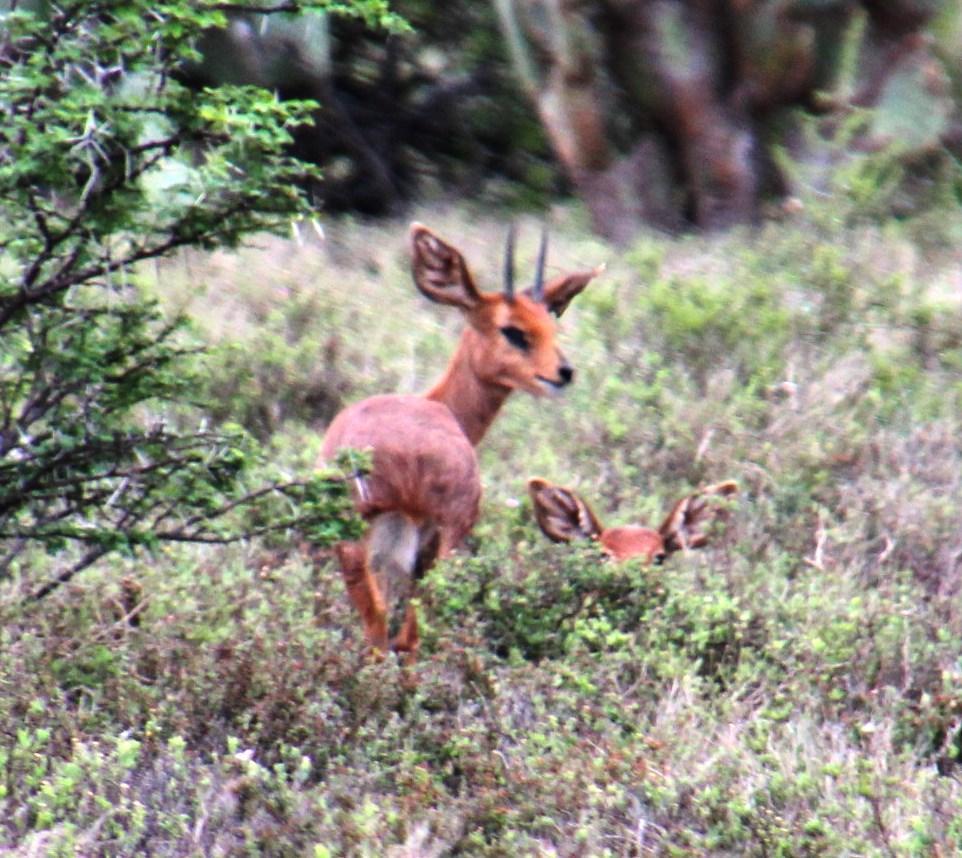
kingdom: Animalia
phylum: Chordata
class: Mammalia
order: Artiodactyla
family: Bovidae
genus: Raphicerus
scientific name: Raphicerus campestris
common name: Steenbok
